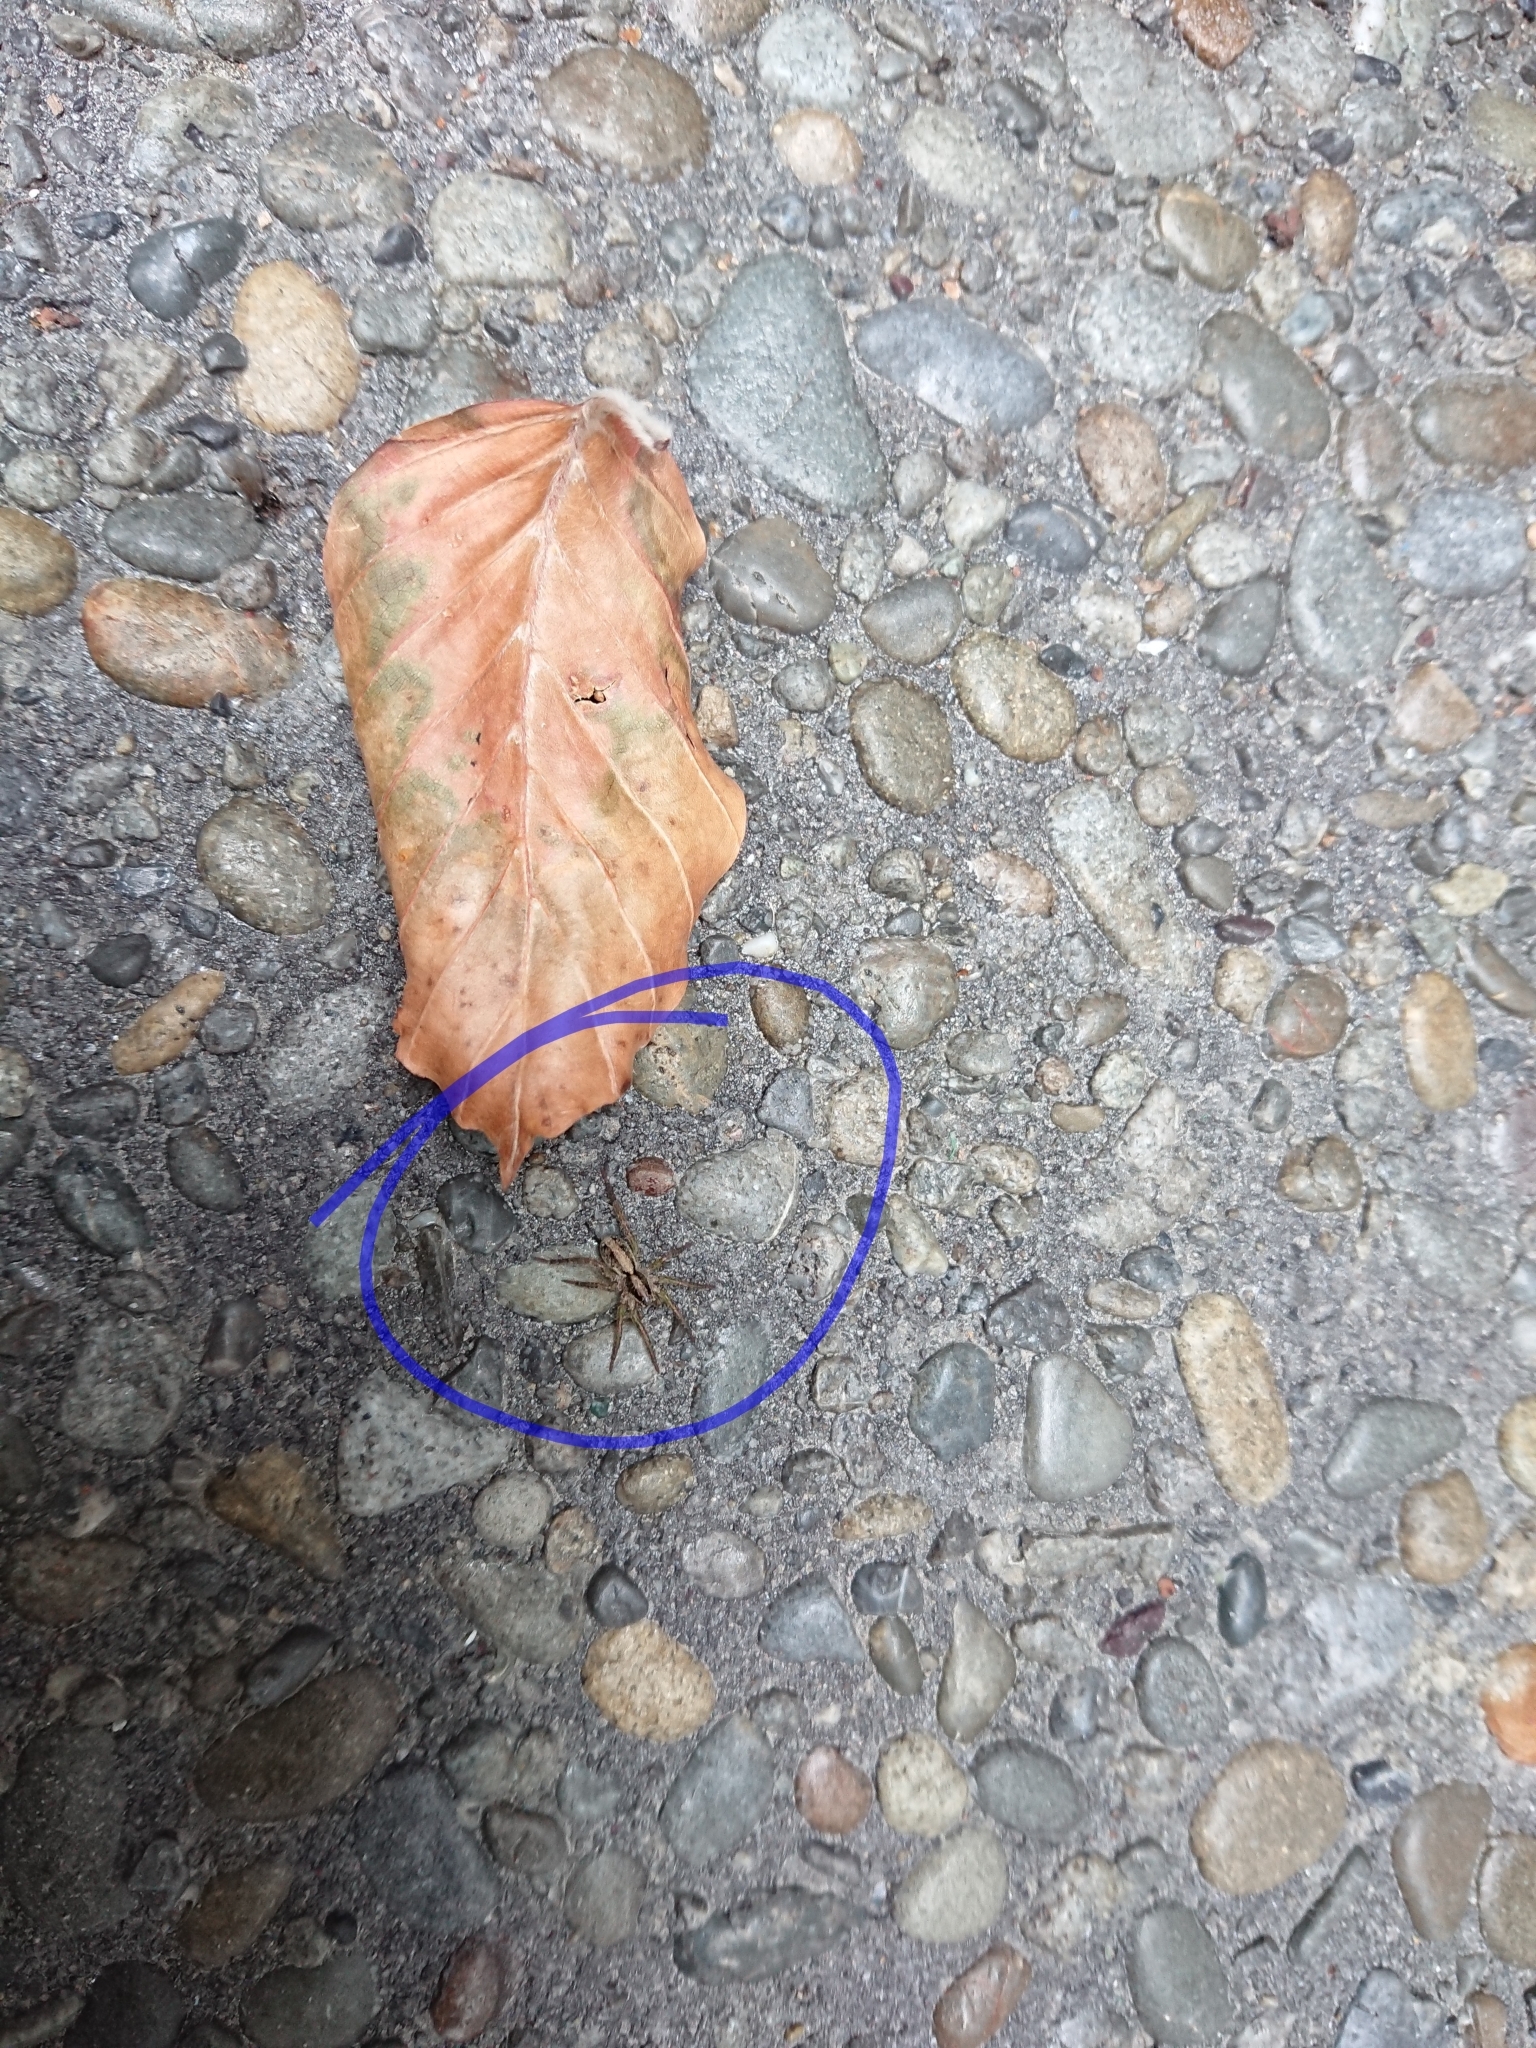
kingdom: Animalia
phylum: Arthropoda
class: Arachnida
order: Araneae
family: Lycosidae
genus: Anoteropsis
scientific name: Anoteropsis hilaris
